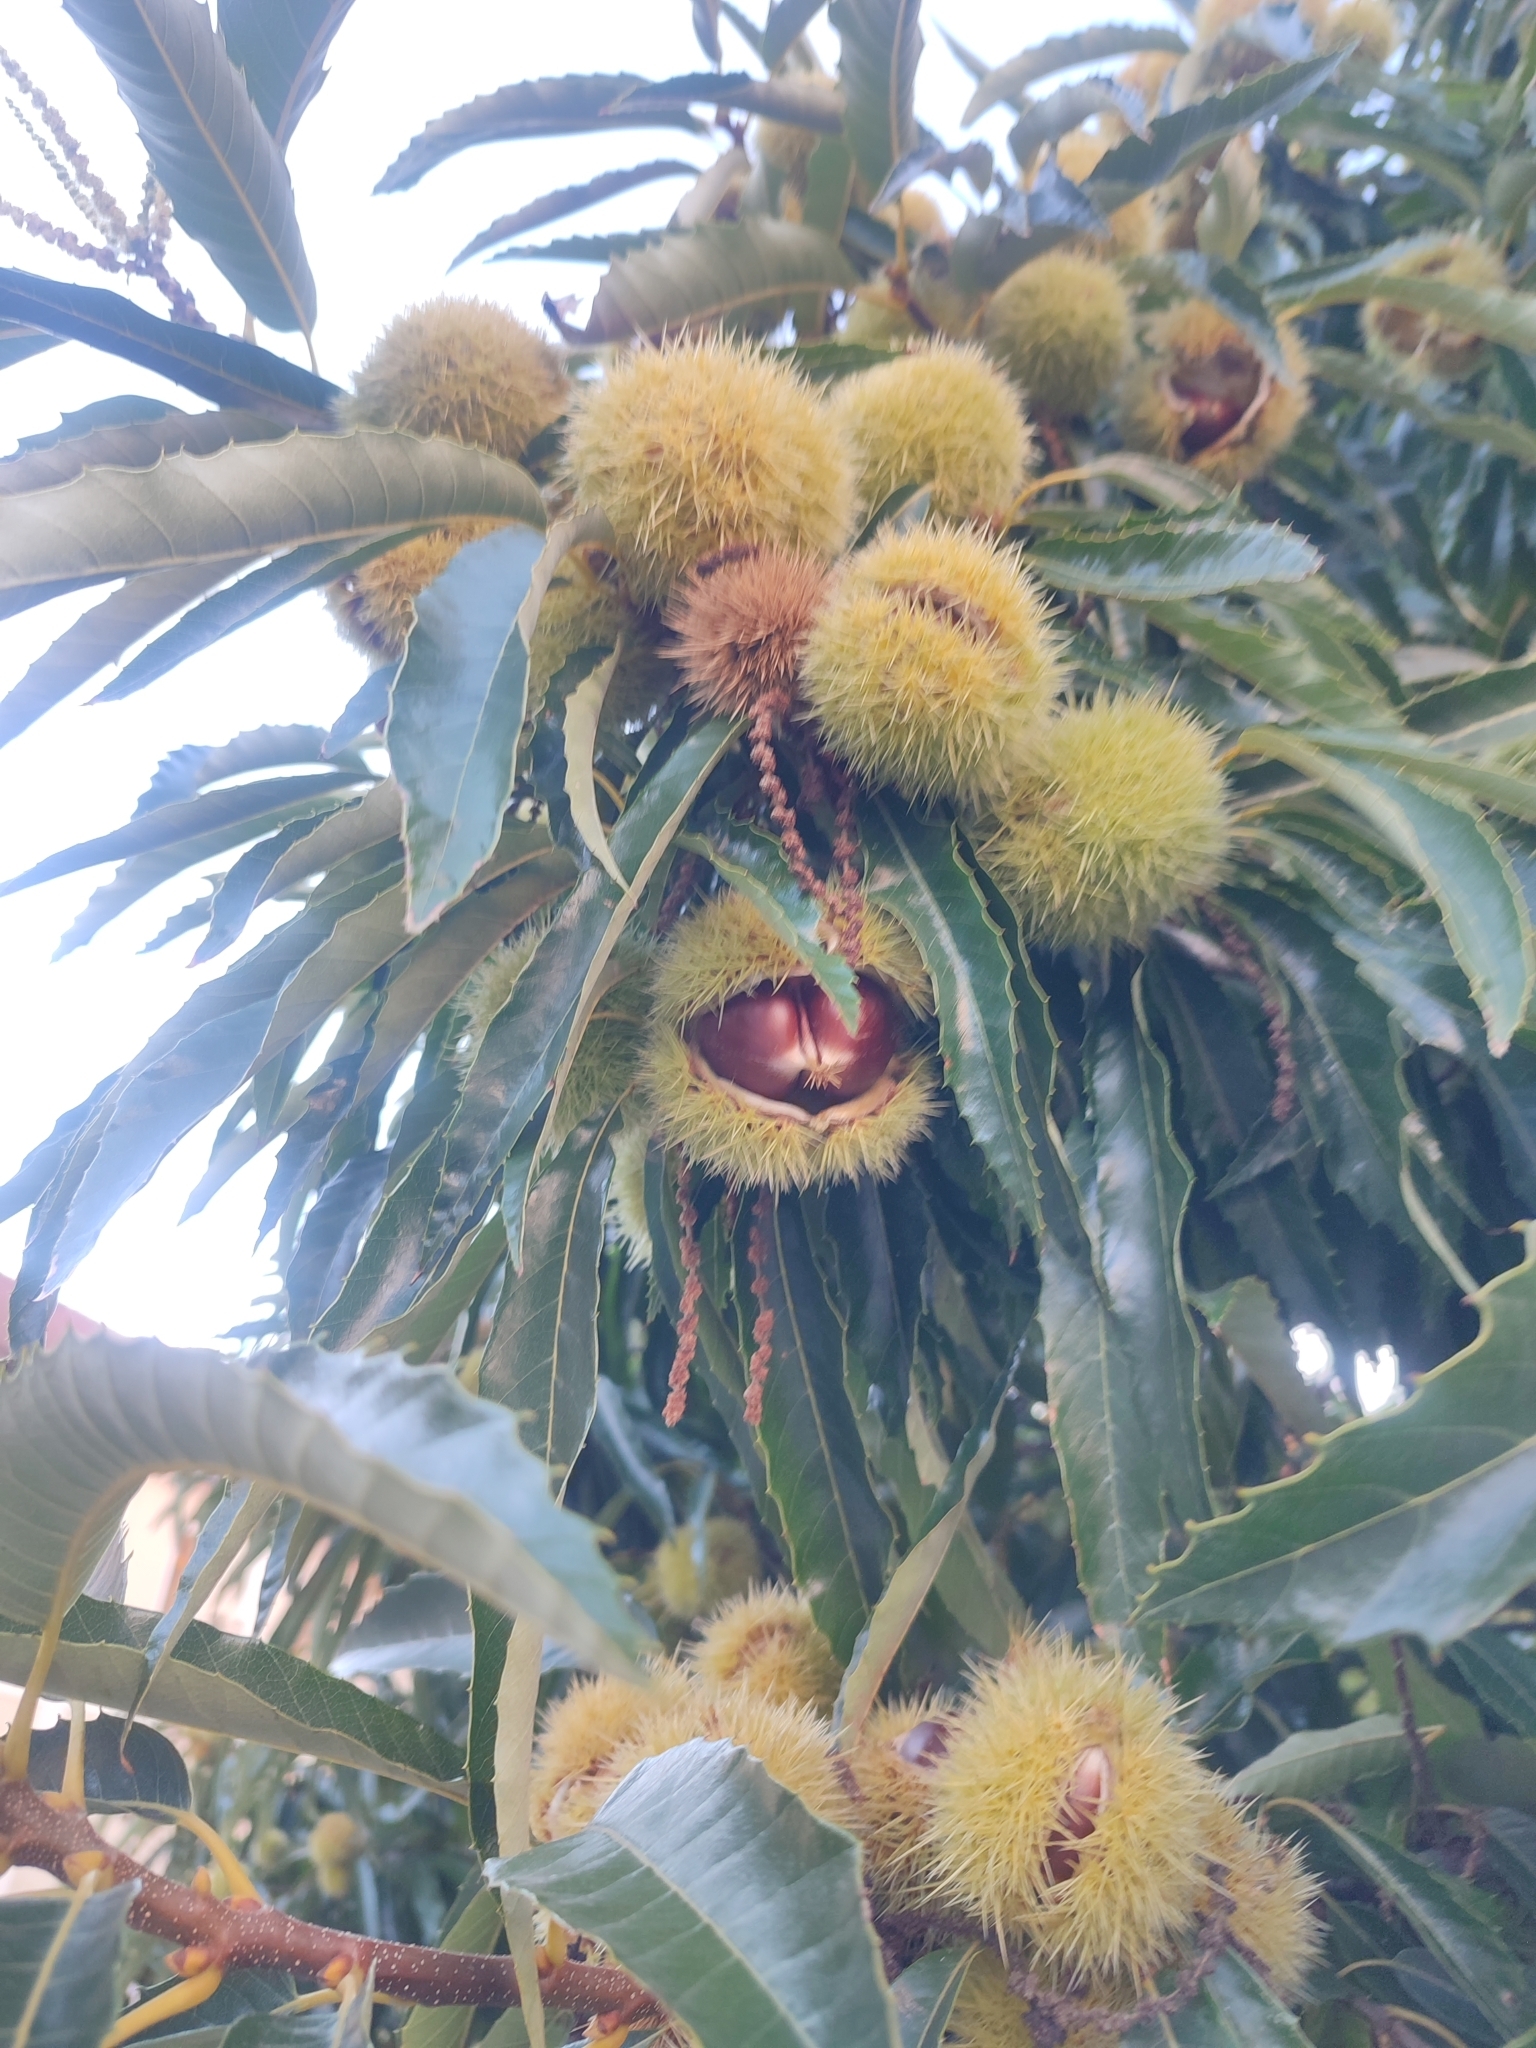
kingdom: Plantae
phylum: Tracheophyta
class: Magnoliopsida
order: Fagales
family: Fagaceae
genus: Castanea
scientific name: Castanea sativa
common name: Sweet chestnut
